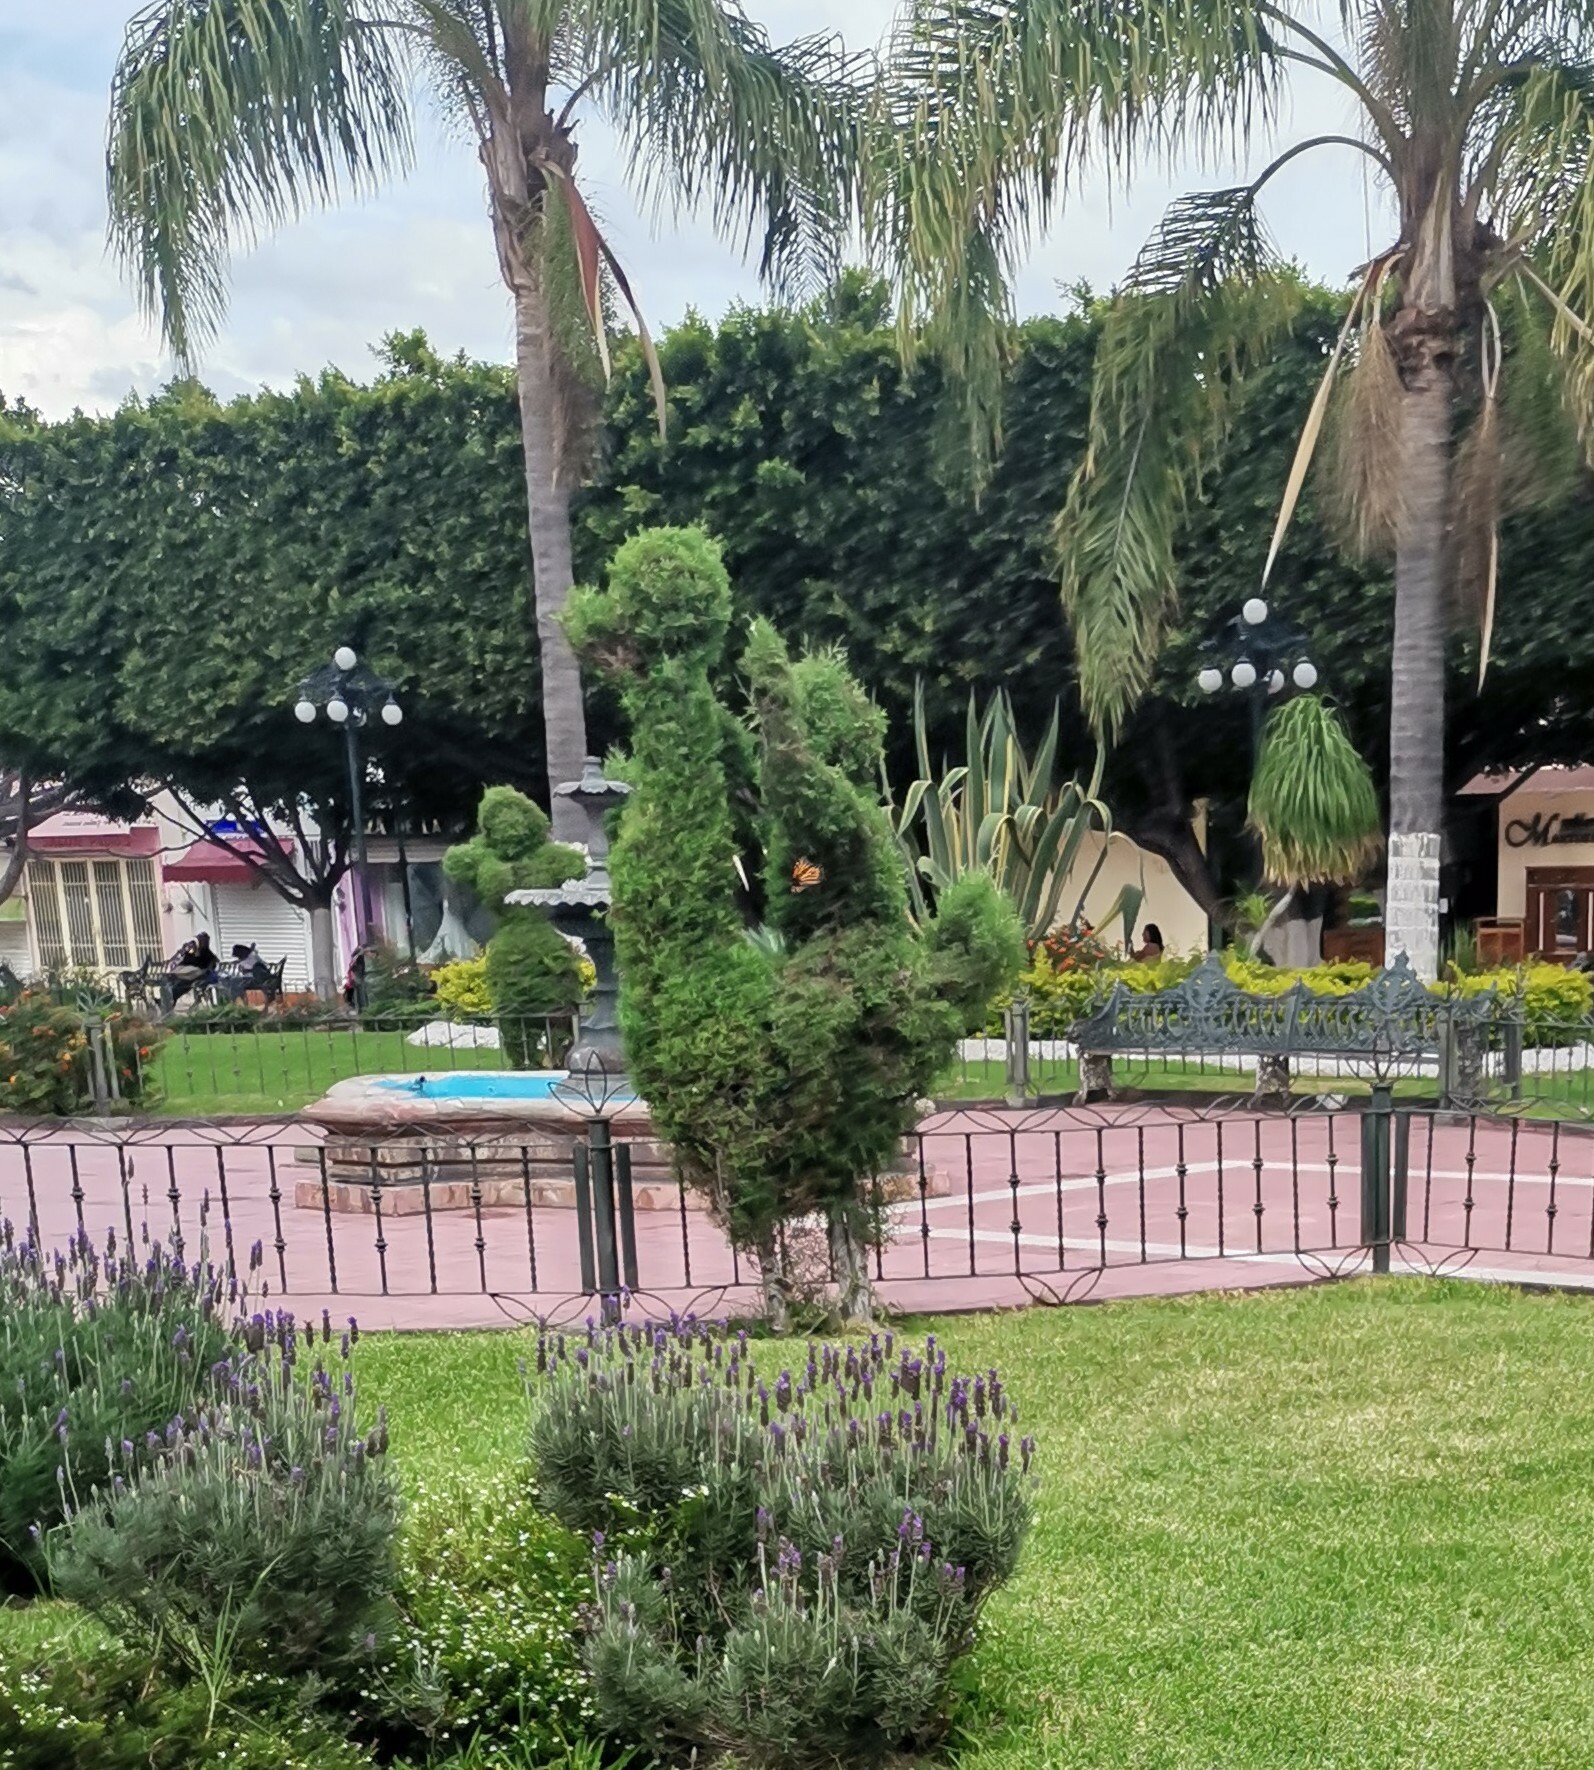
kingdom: Animalia
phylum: Arthropoda
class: Insecta
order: Lepidoptera
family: Nymphalidae
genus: Danaus
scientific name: Danaus plexippus
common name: Monarch
